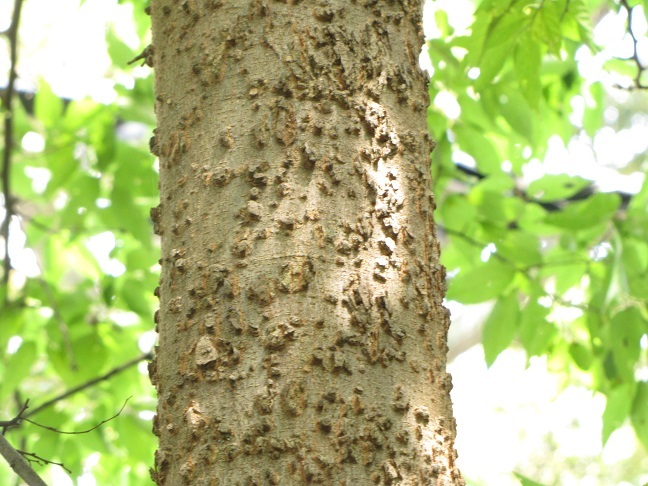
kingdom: Plantae
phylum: Tracheophyta
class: Magnoliopsida
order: Rosales
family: Cannabaceae
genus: Celtis
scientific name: Celtis laevigata
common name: Sugarberry
